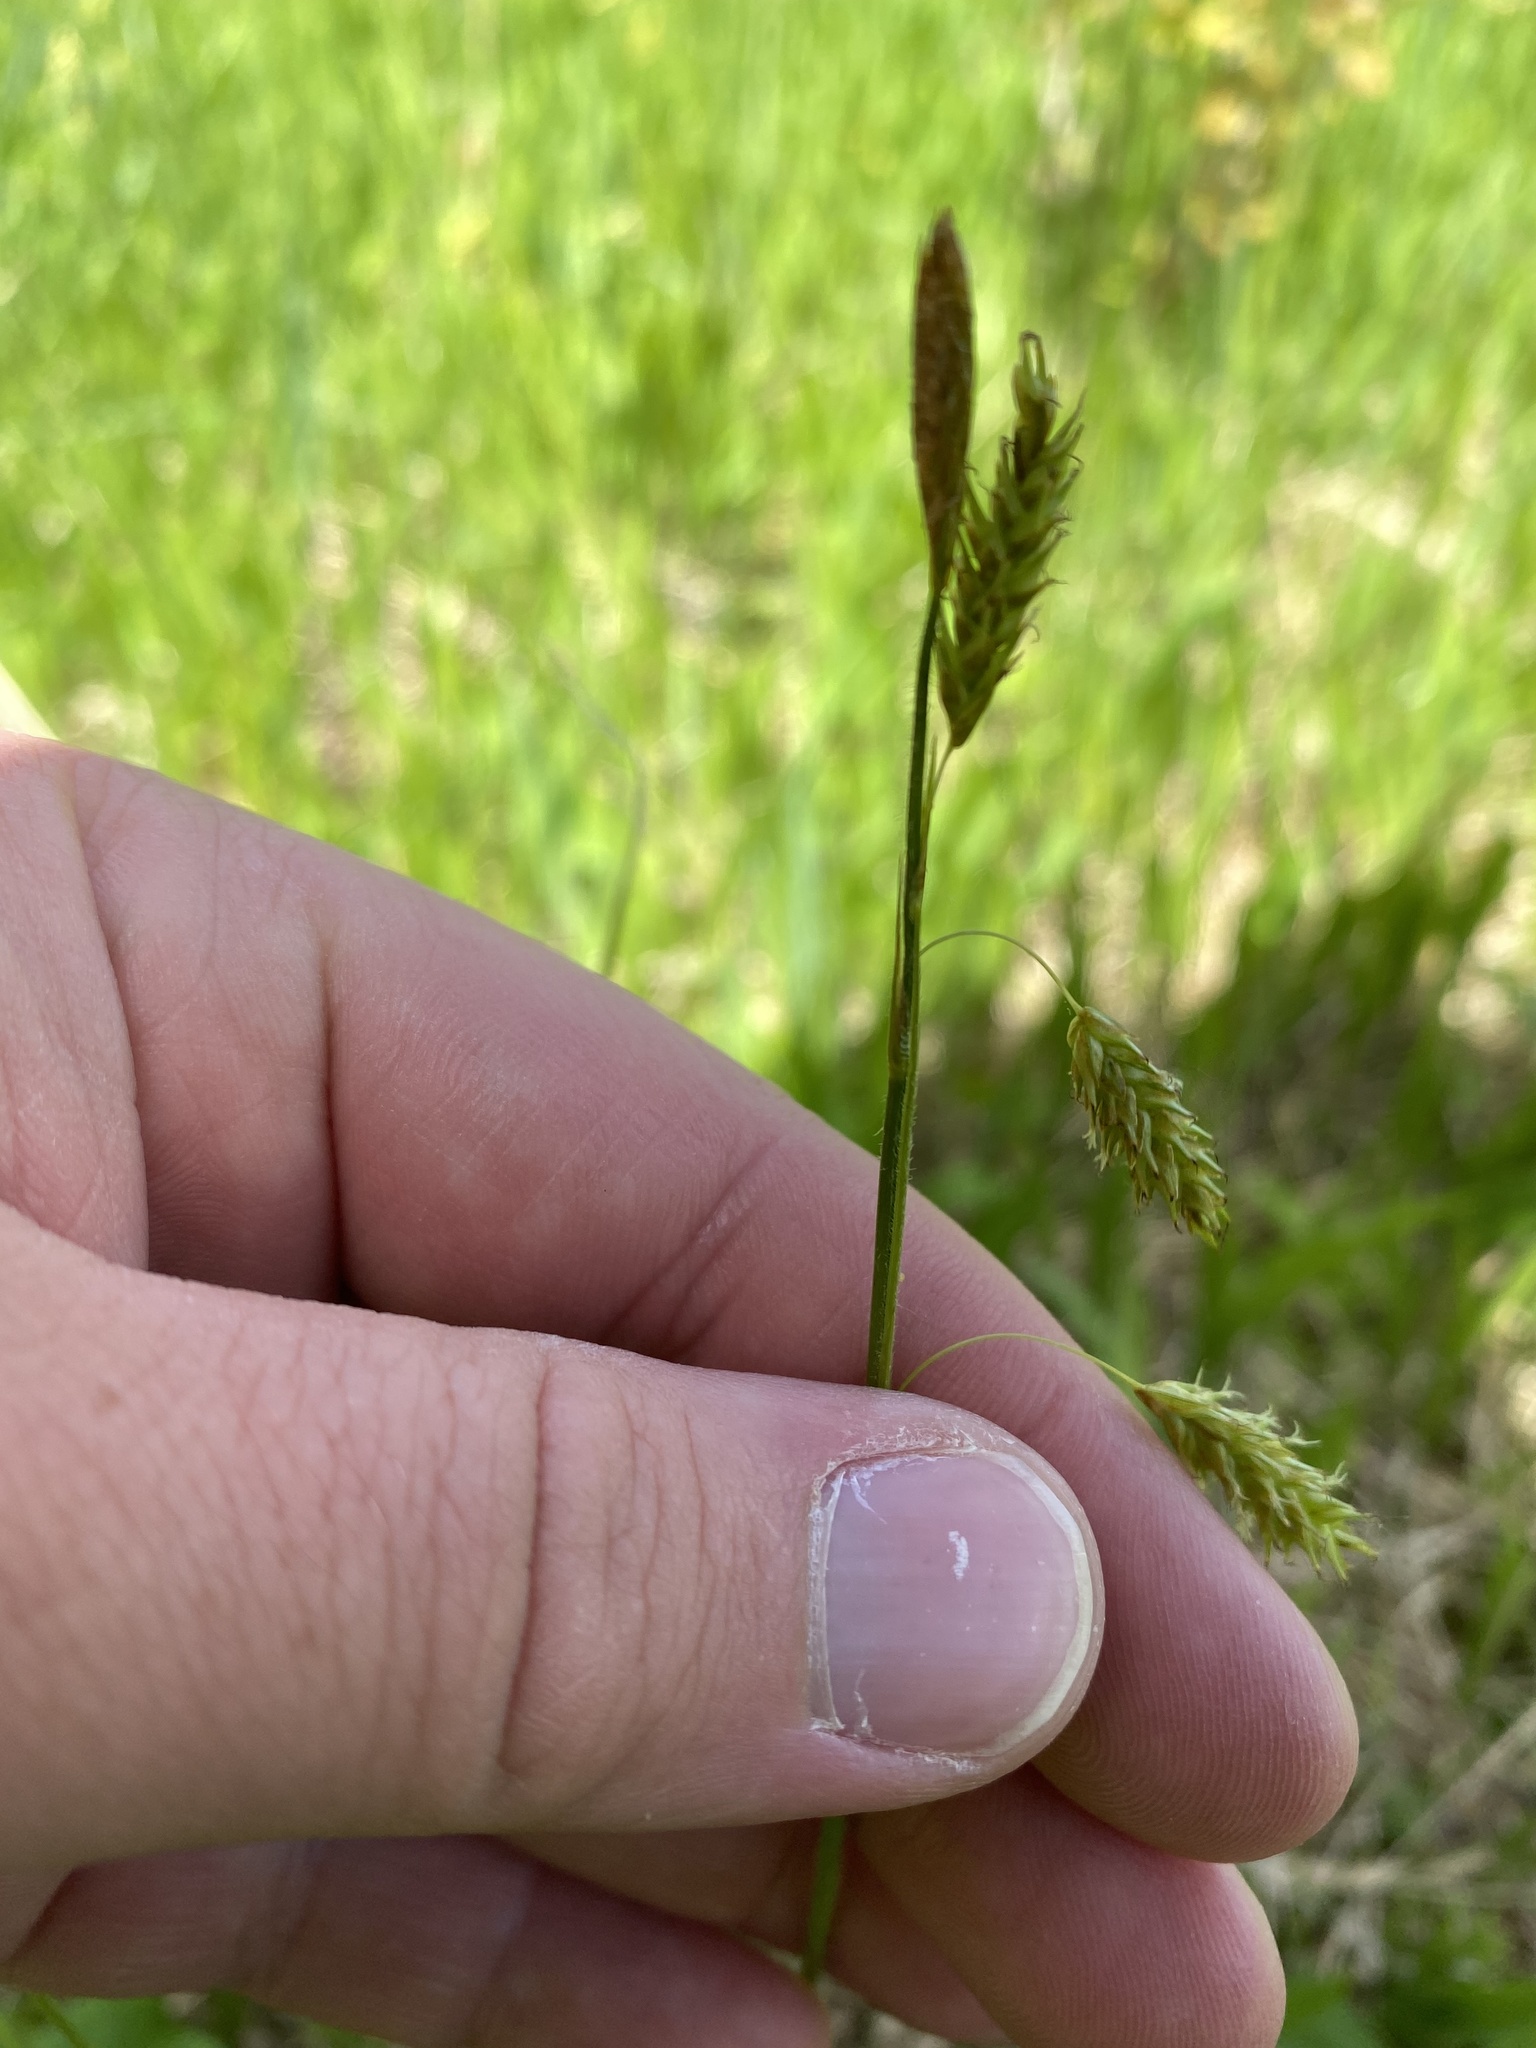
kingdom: Plantae
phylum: Tracheophyta
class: Liliopsida
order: Poales
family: Cyperaceae
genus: Carex
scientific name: Carex castanea
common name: Chestnut sedge
